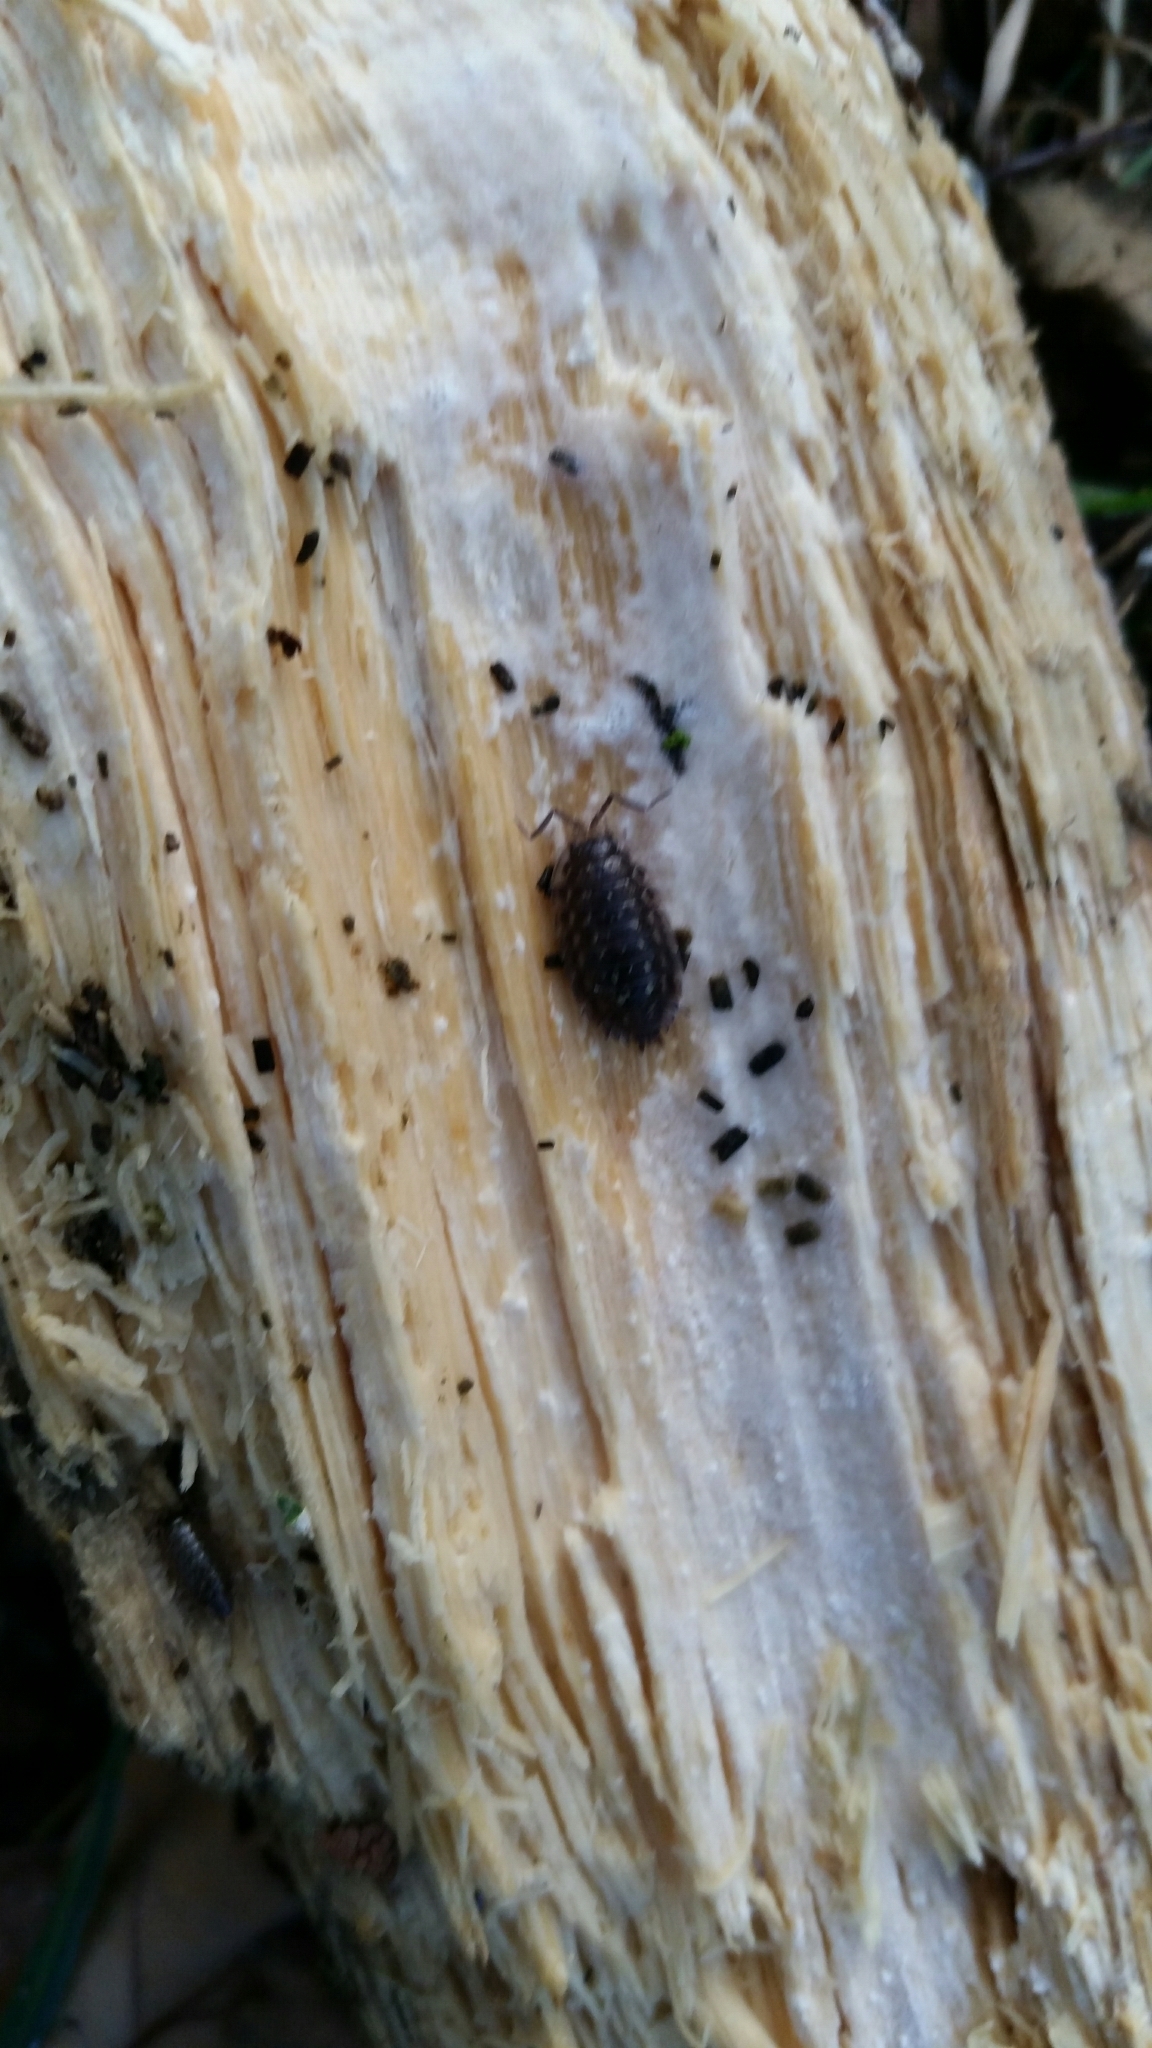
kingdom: Animalia
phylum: Arthropoda
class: Malacostraca
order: Isopoda
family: Oniscidae
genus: Oniscus
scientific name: Oniscus asellus
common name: Common shiny woodlouse
